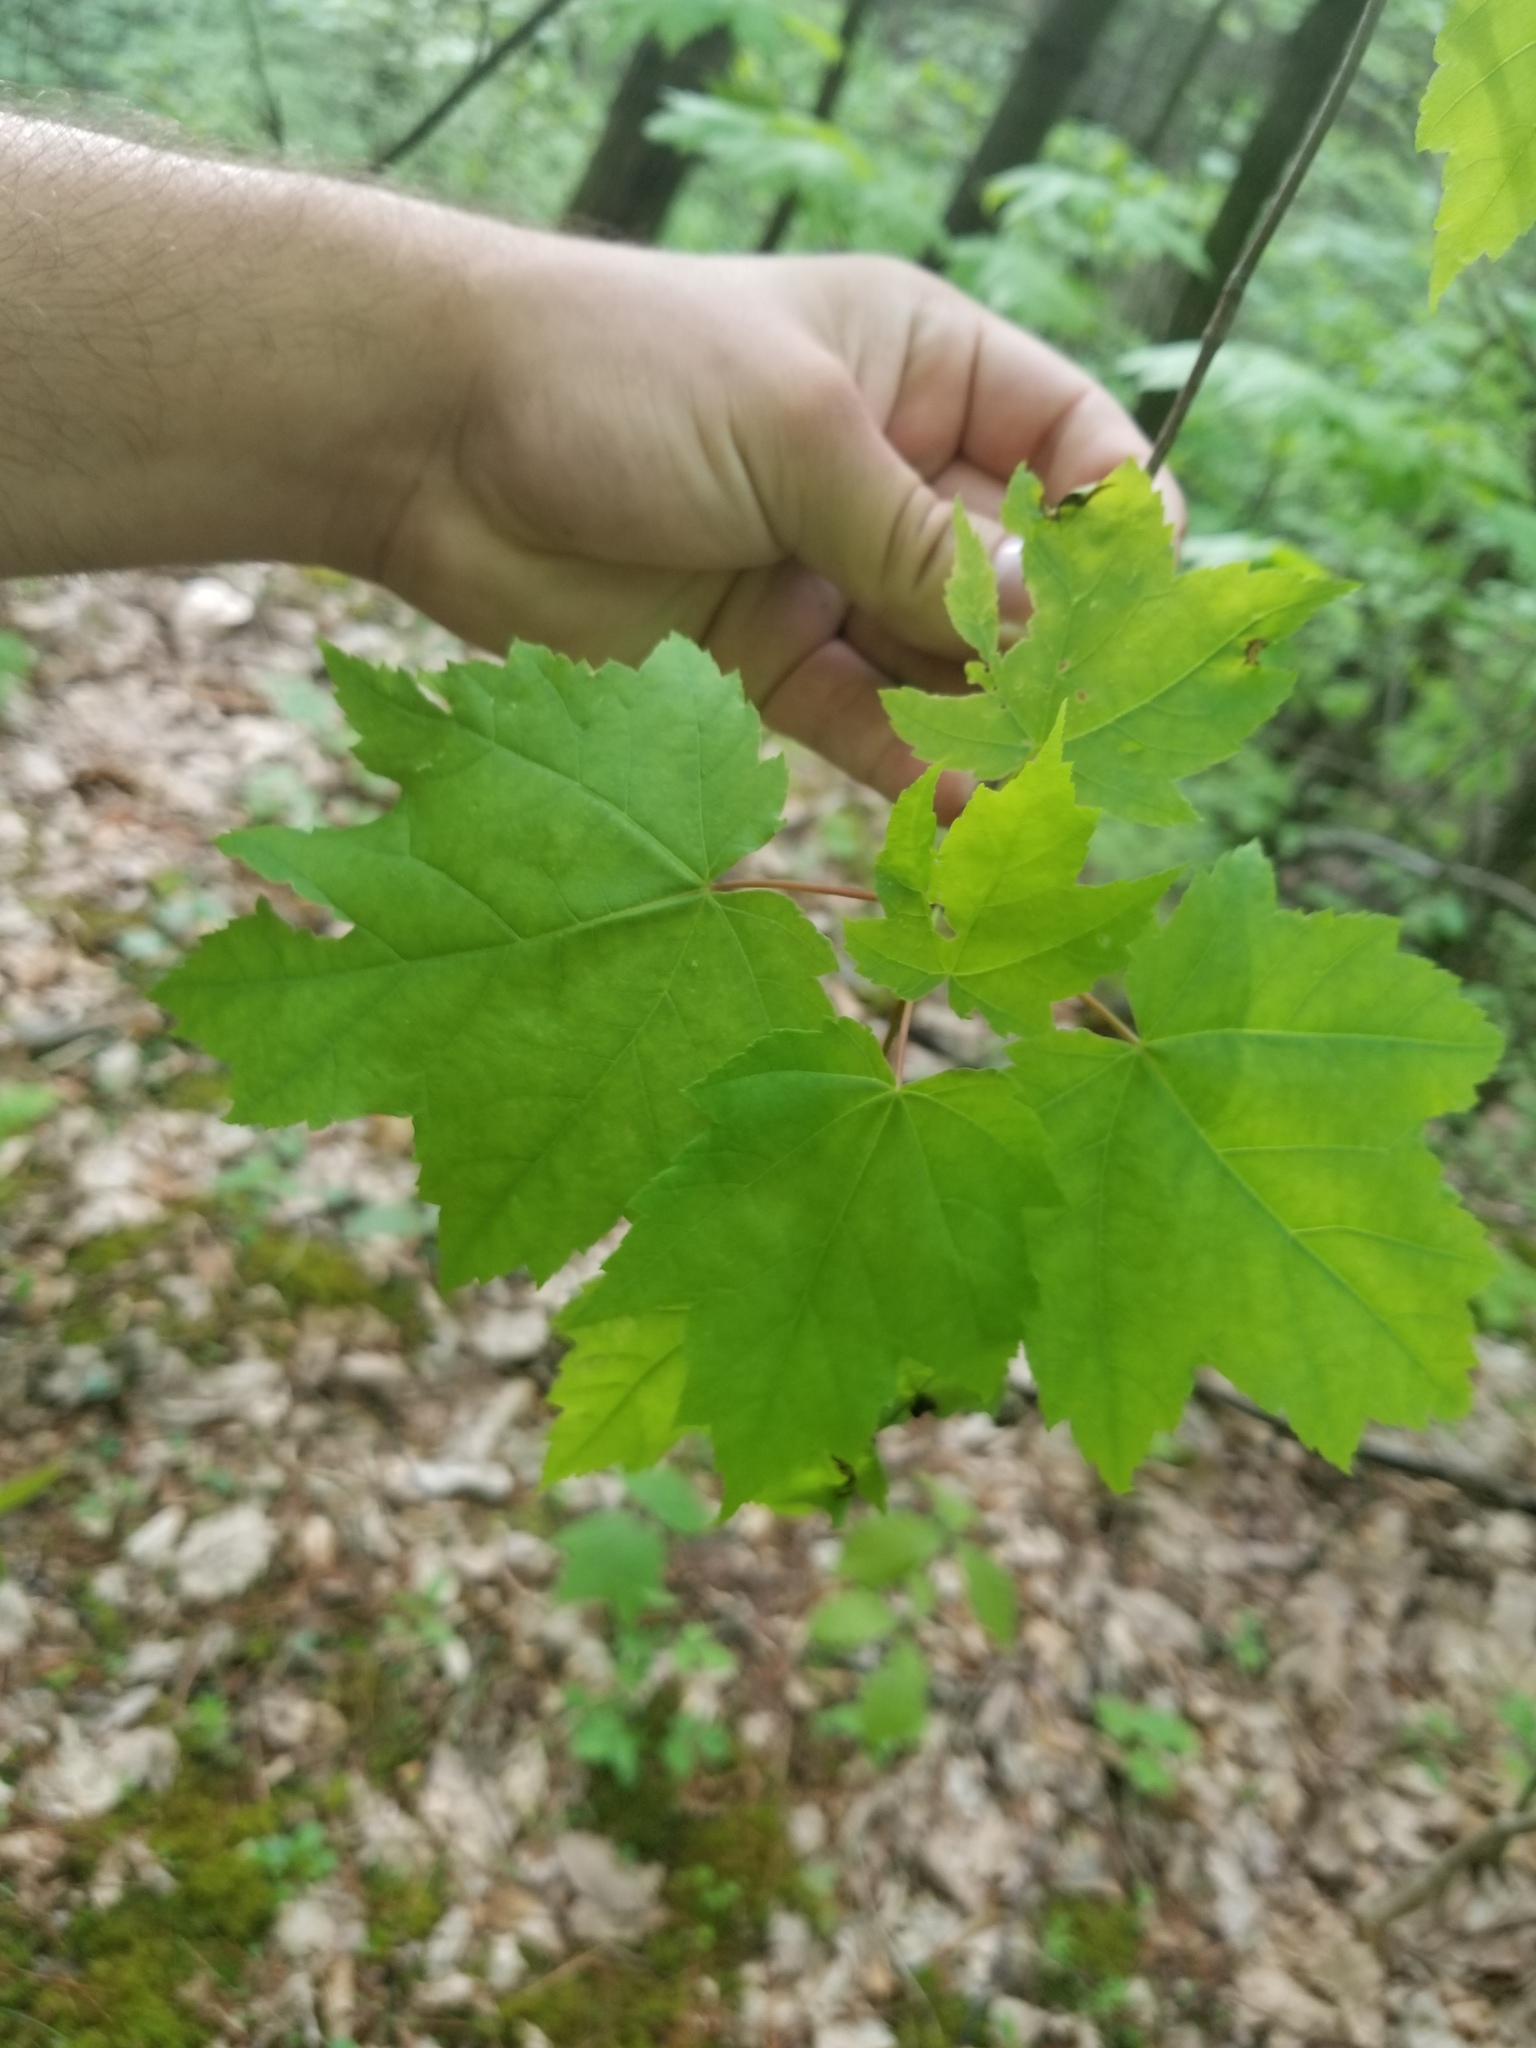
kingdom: Plantae
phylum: Tracheophyta
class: Magnoliopsida
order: Sapindales
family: Sapindaceae
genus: Acer
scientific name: Acer rubrum
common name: Red maple
